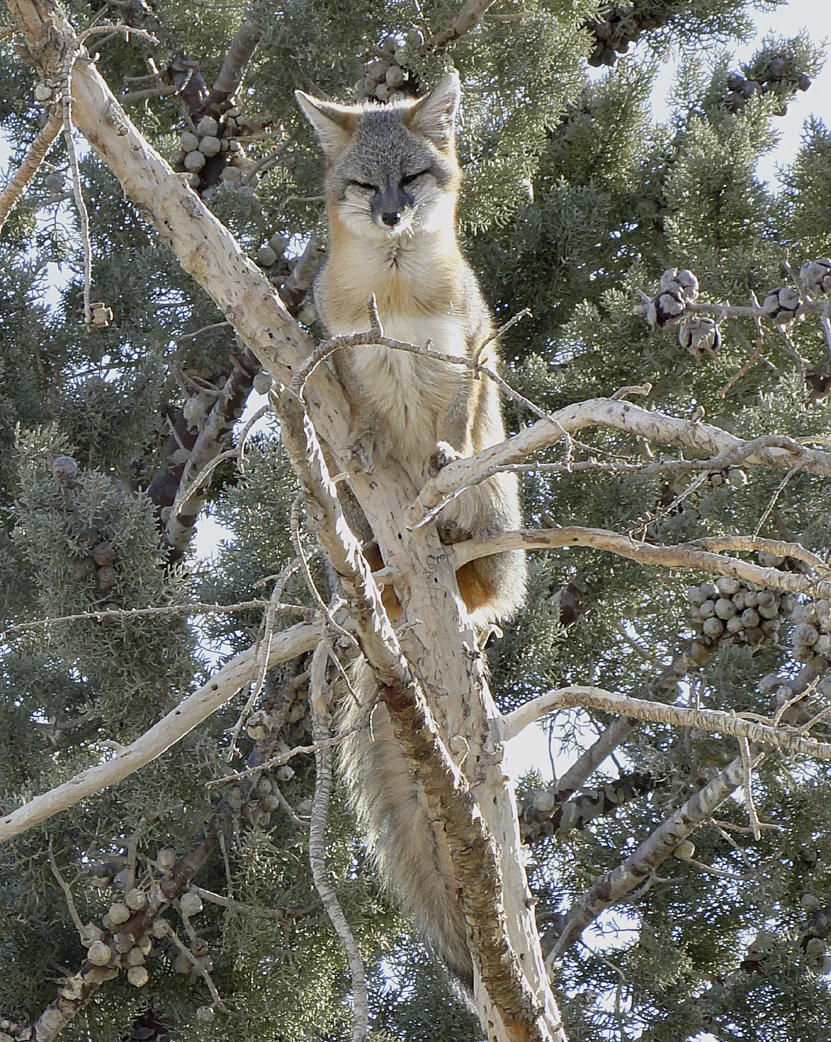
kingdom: Animalia
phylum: Chordata
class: Mammalia
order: Carnivora
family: Canidae
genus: Urocyon
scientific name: Urocyon cinereoargenteus
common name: Gray fox
